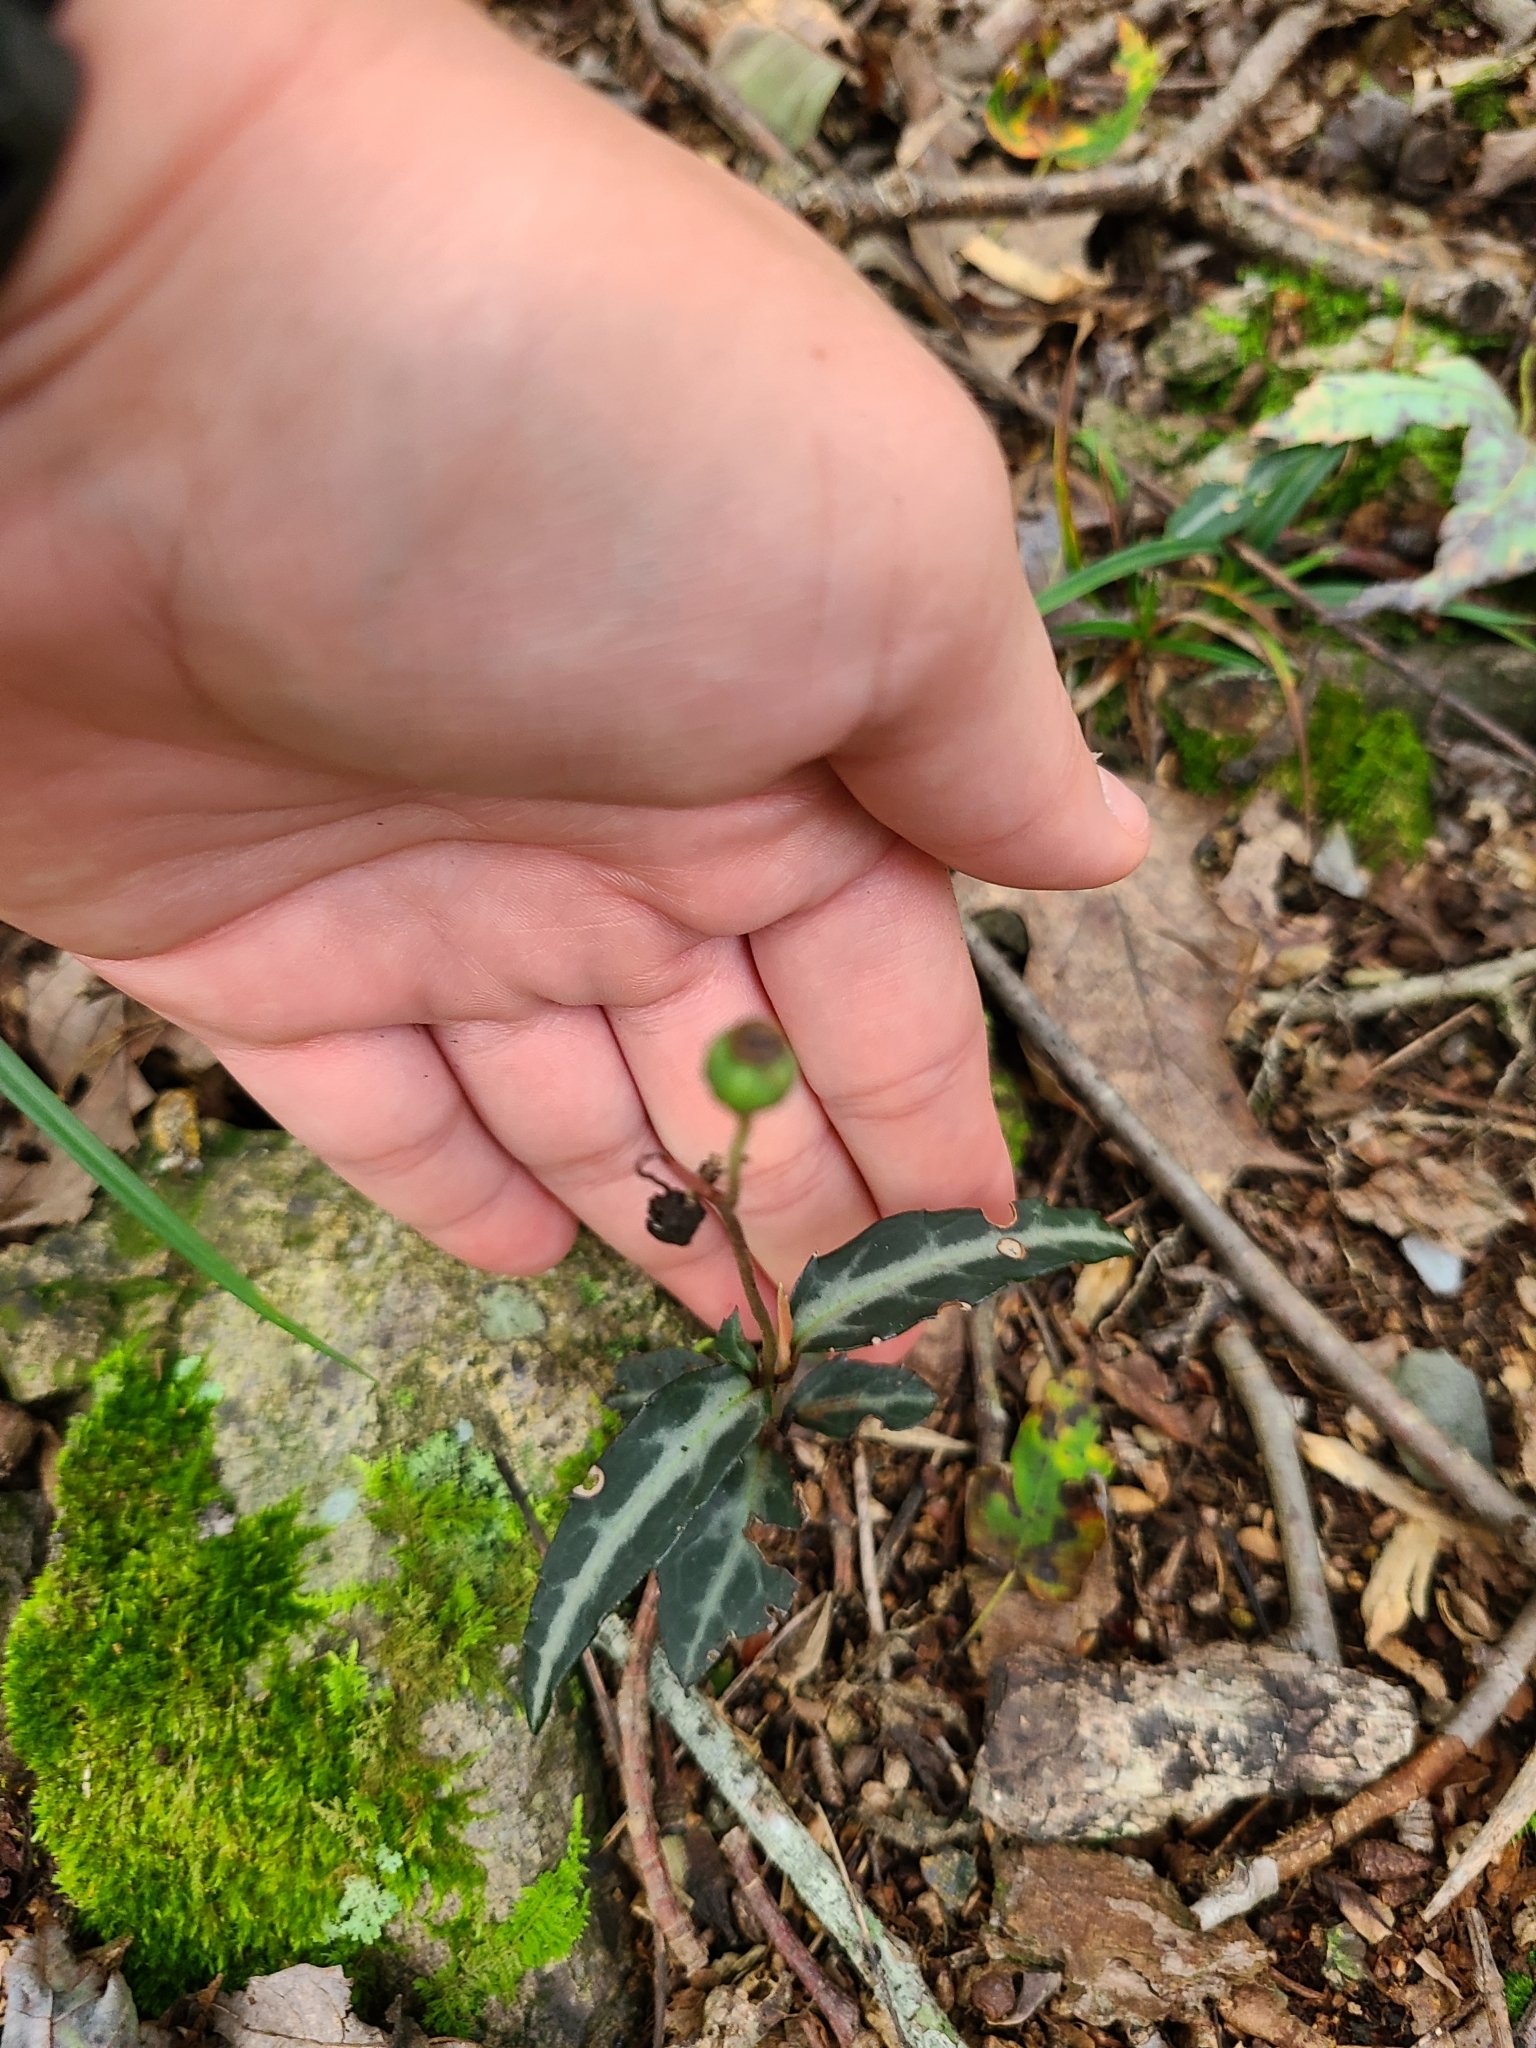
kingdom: Plantae
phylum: Tracheophyta
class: Magnoliopsida
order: Ericales
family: Ericaceae
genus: Chimaphila
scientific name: Chimaphila maculata
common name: Spotted pipsissewa
